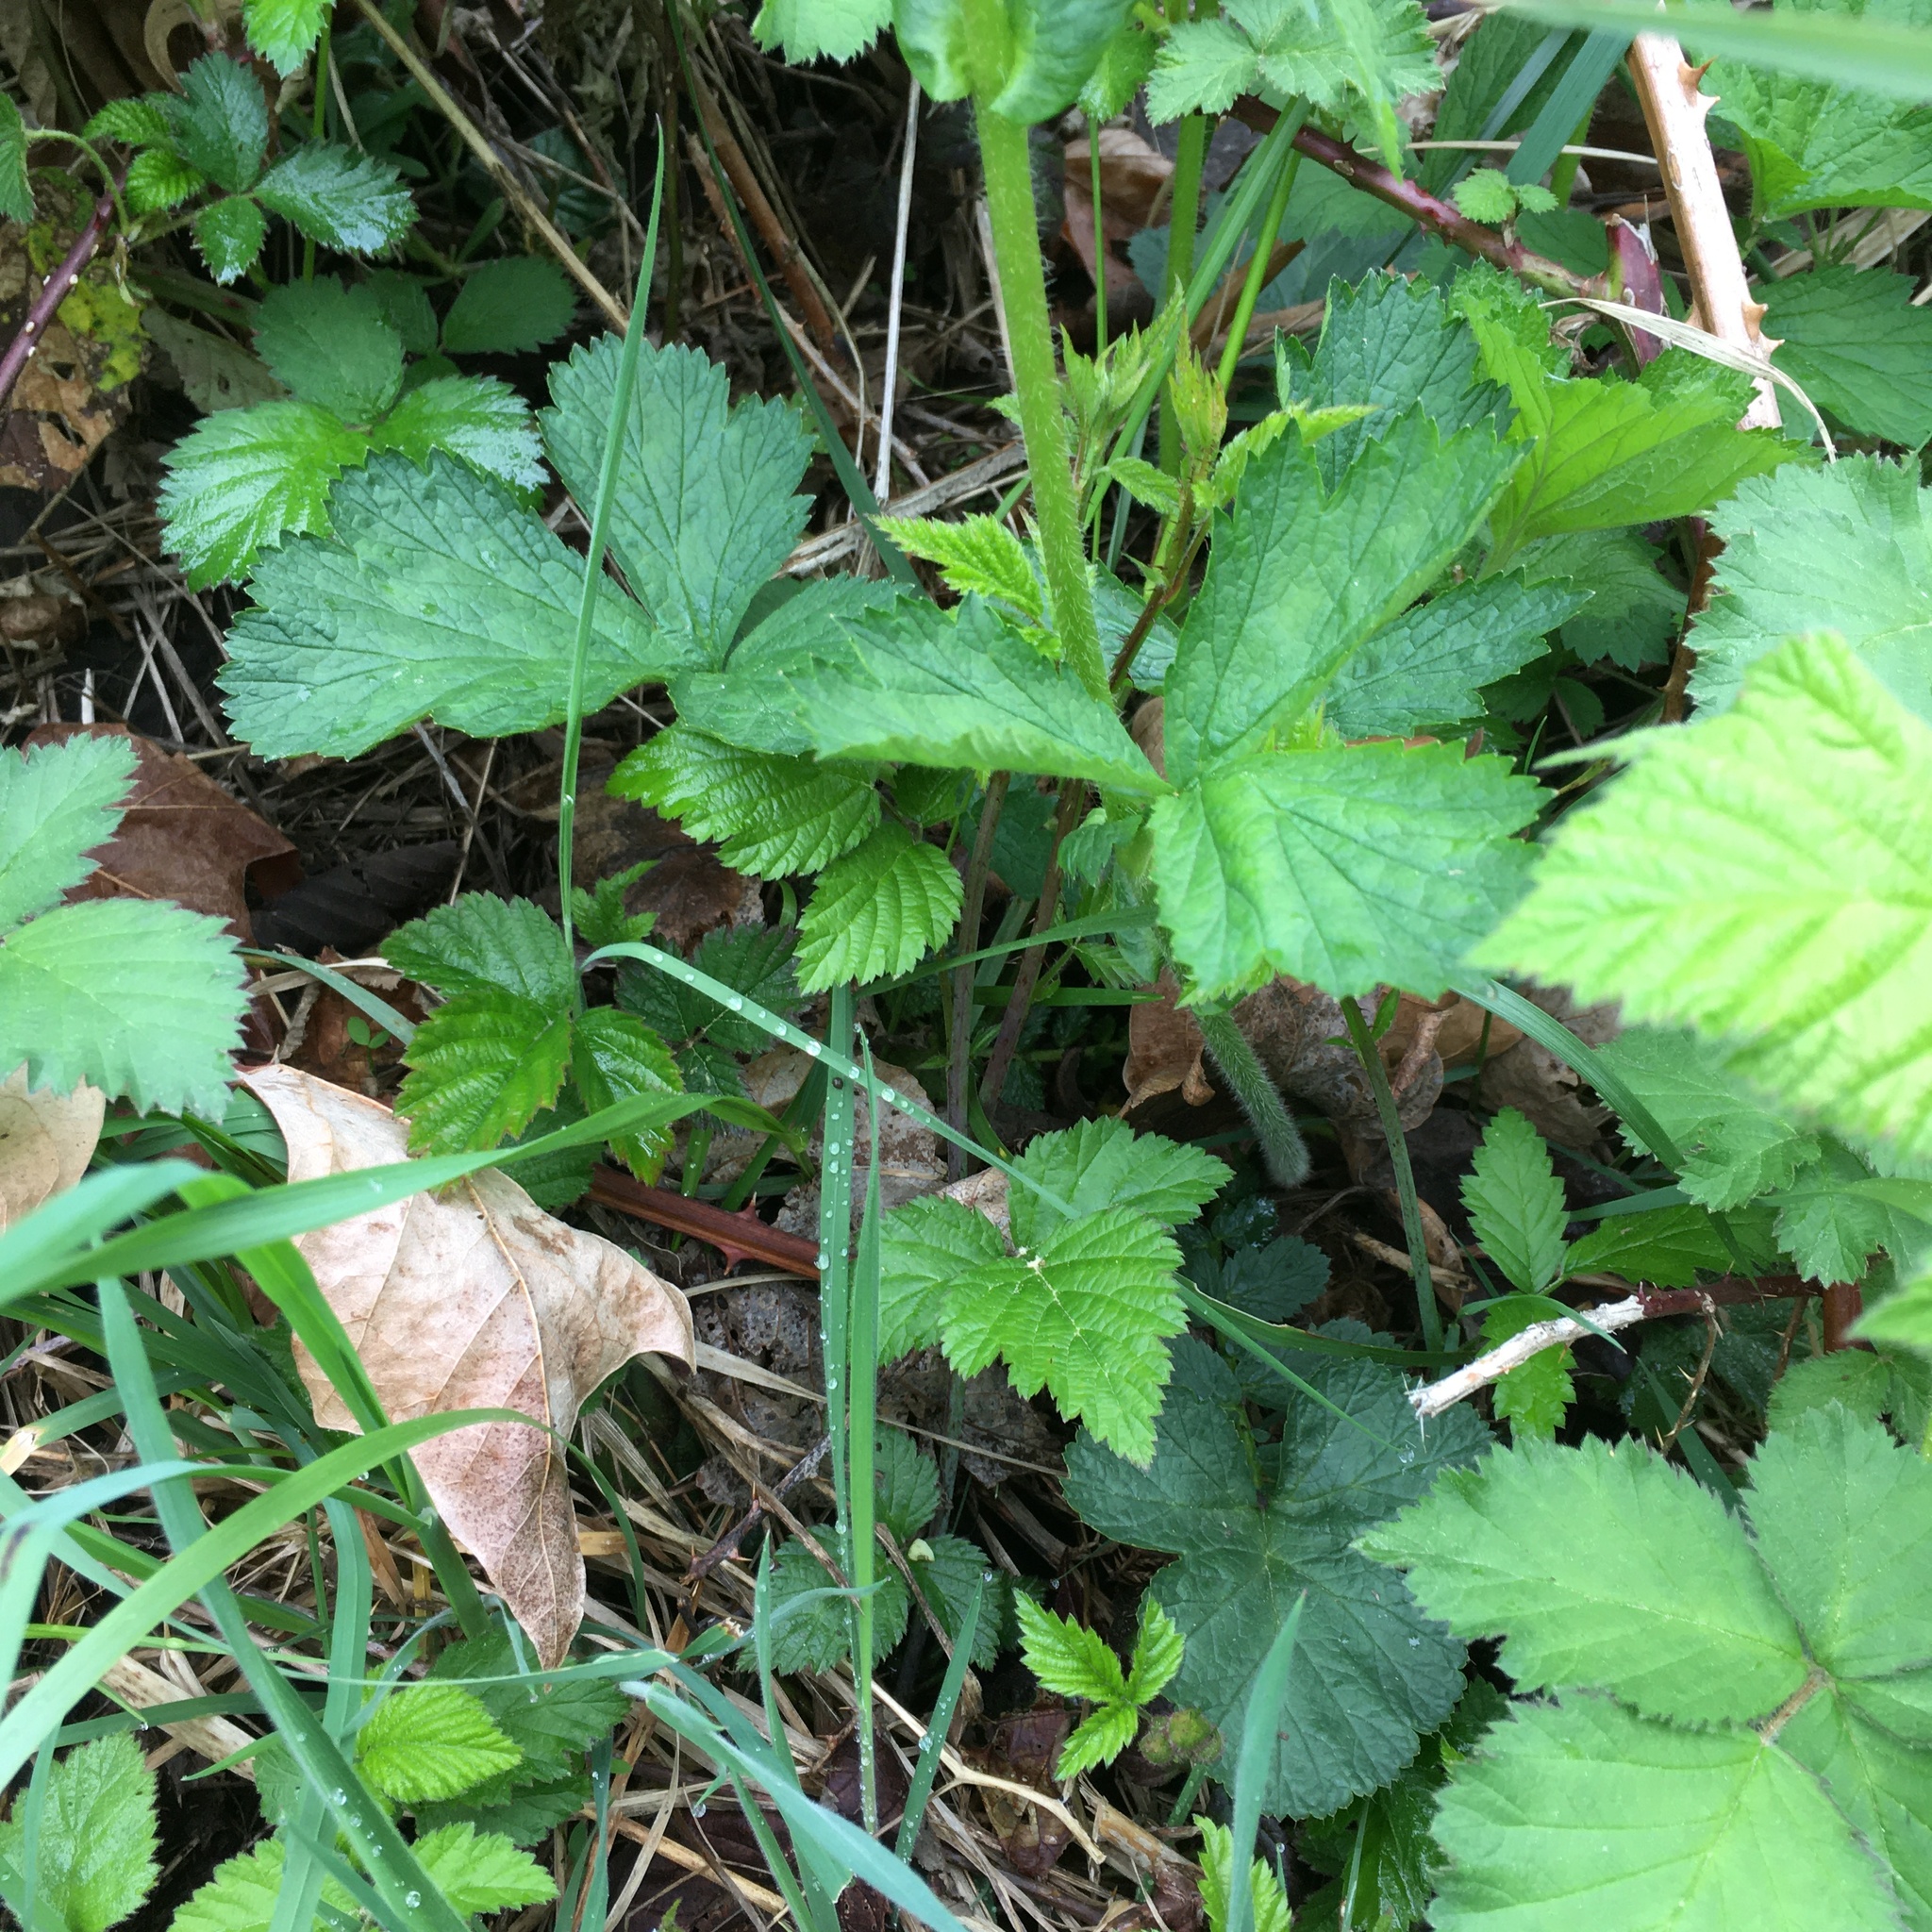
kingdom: Plantae
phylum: Tracheophyta
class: Magnoliopsida
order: Rosales
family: Rosaceae
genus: Geum
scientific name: Geum macrophyllum
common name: Large-leaved avens
